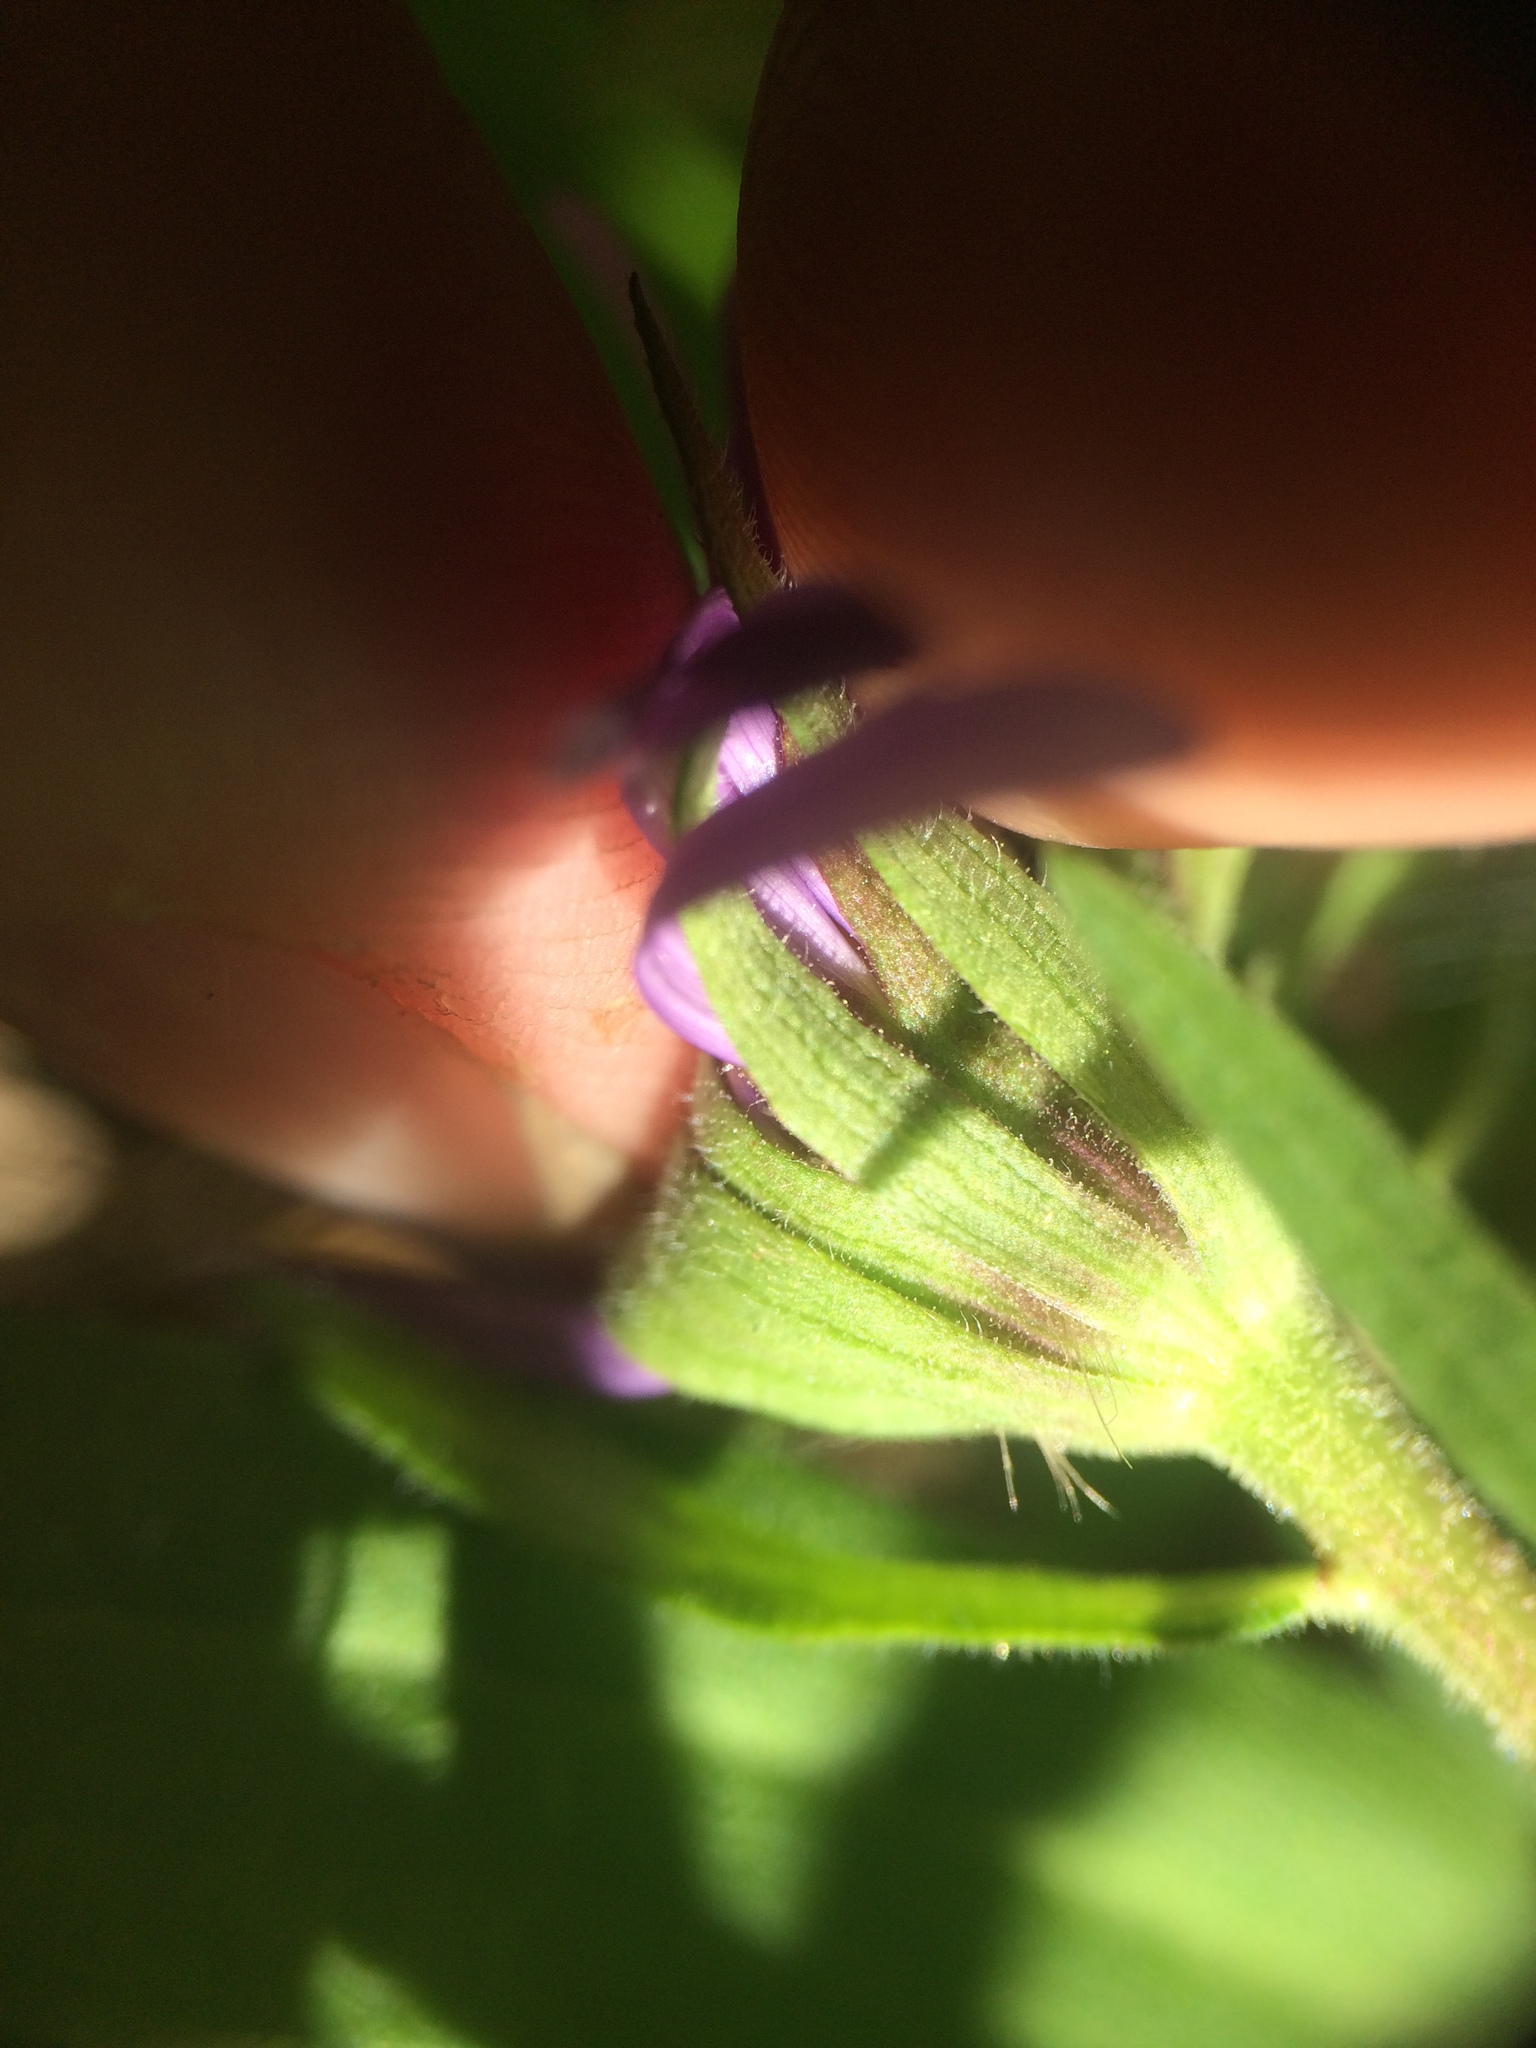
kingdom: Plantae
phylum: Tracheophyta
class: Magnoliopsida
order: Asterales
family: Asteraceae
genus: Symphyotrichum
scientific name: Symphyotrichum novae-angliae
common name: Michaelmas daisy
